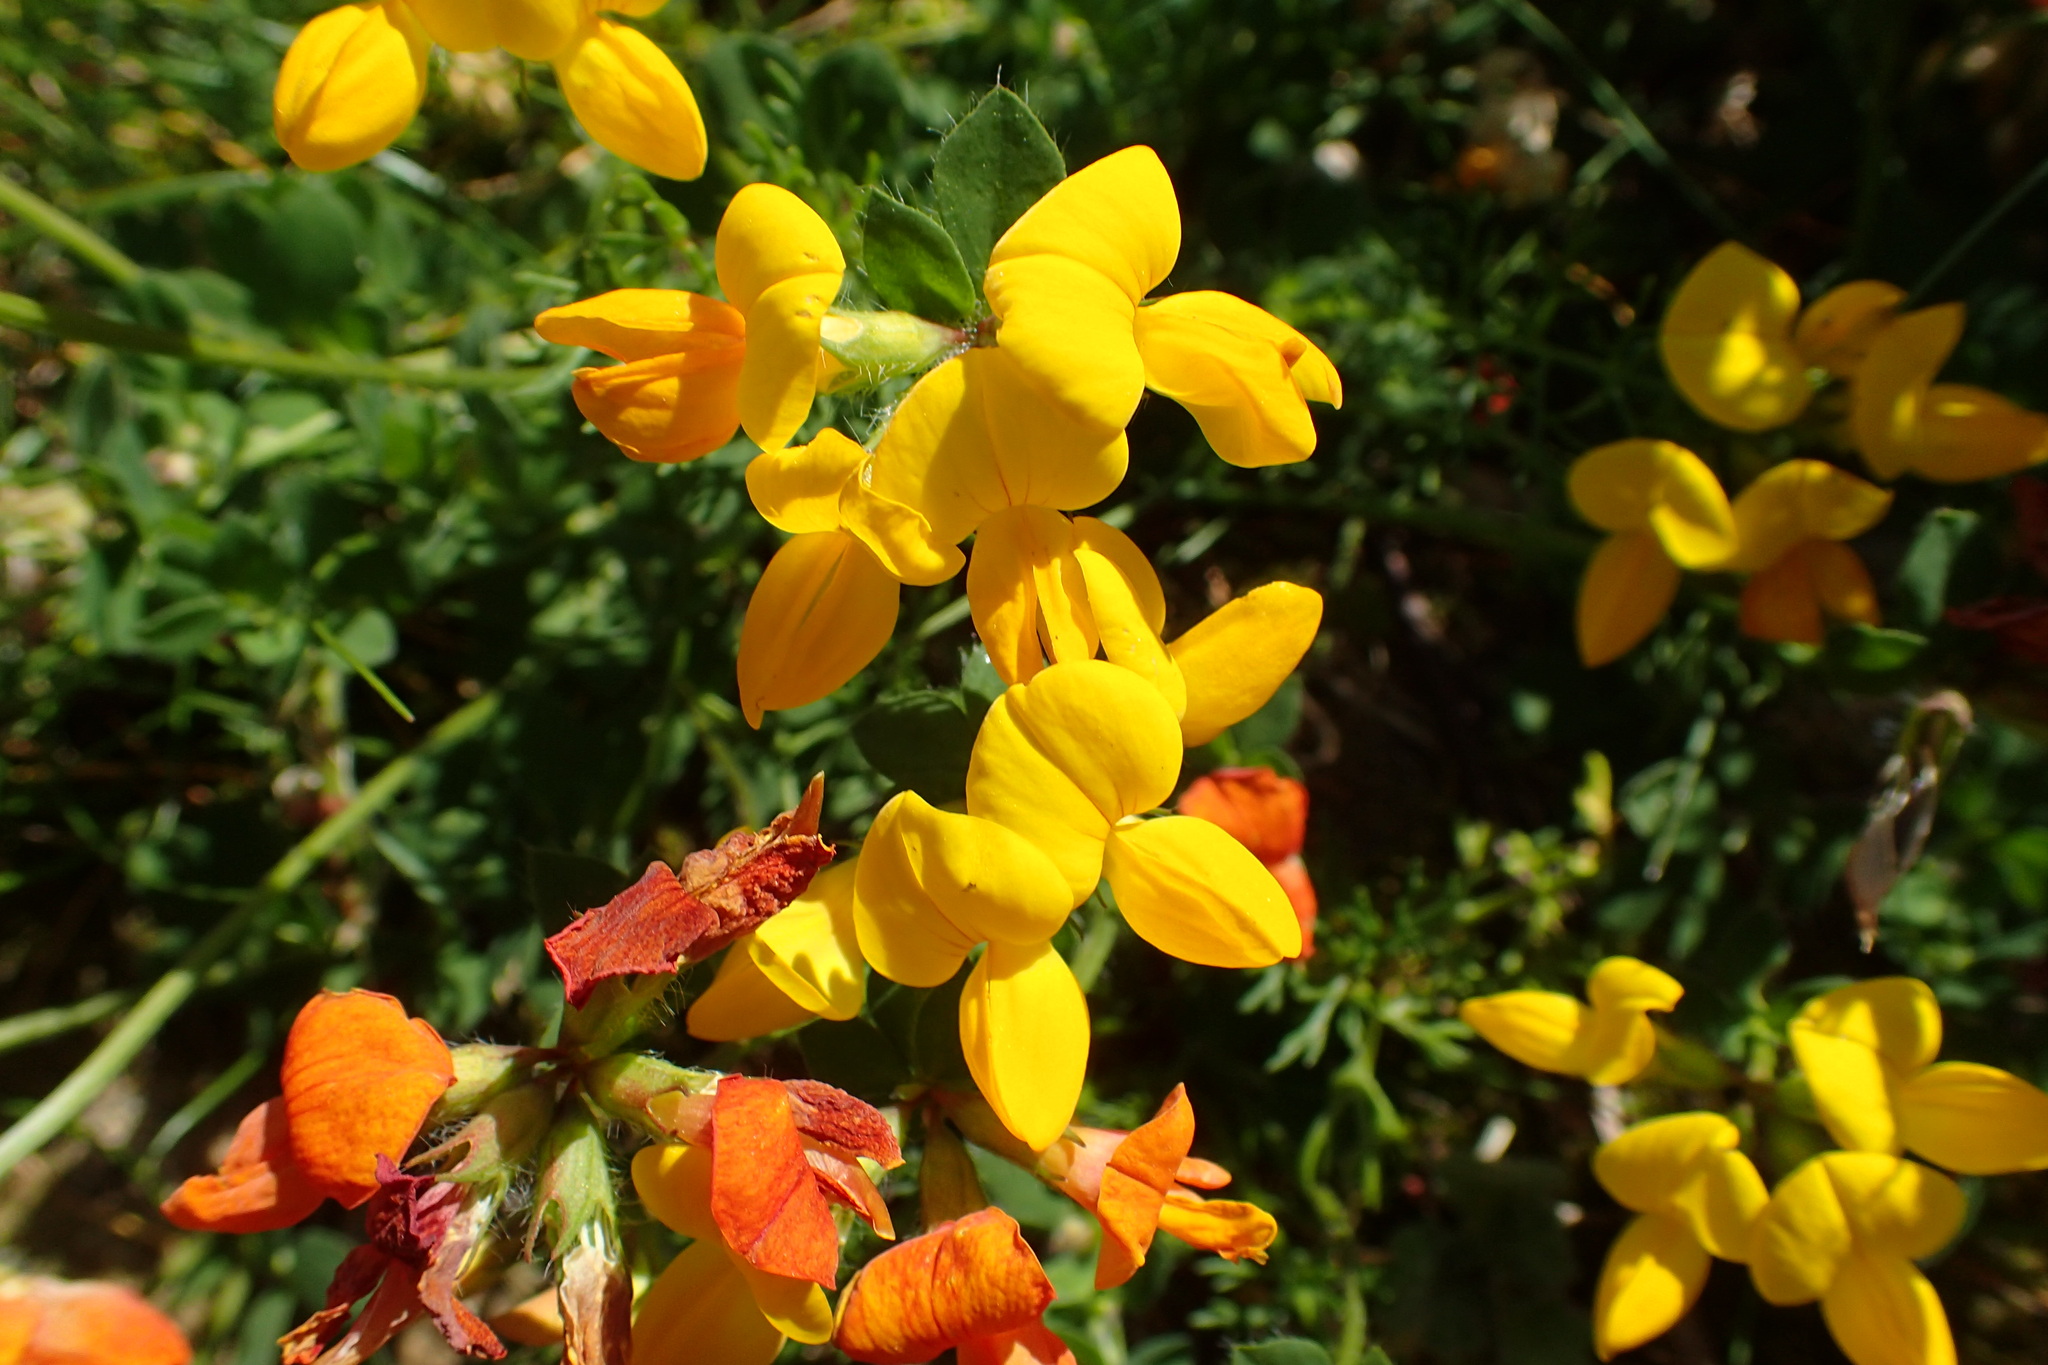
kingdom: Plantae
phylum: Tracheophyta
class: Magnoliopsida
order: Fabales
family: Fabaceae
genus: Lotus
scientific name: Lotus corniculatus
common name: Common bird's-foot-trefoil
